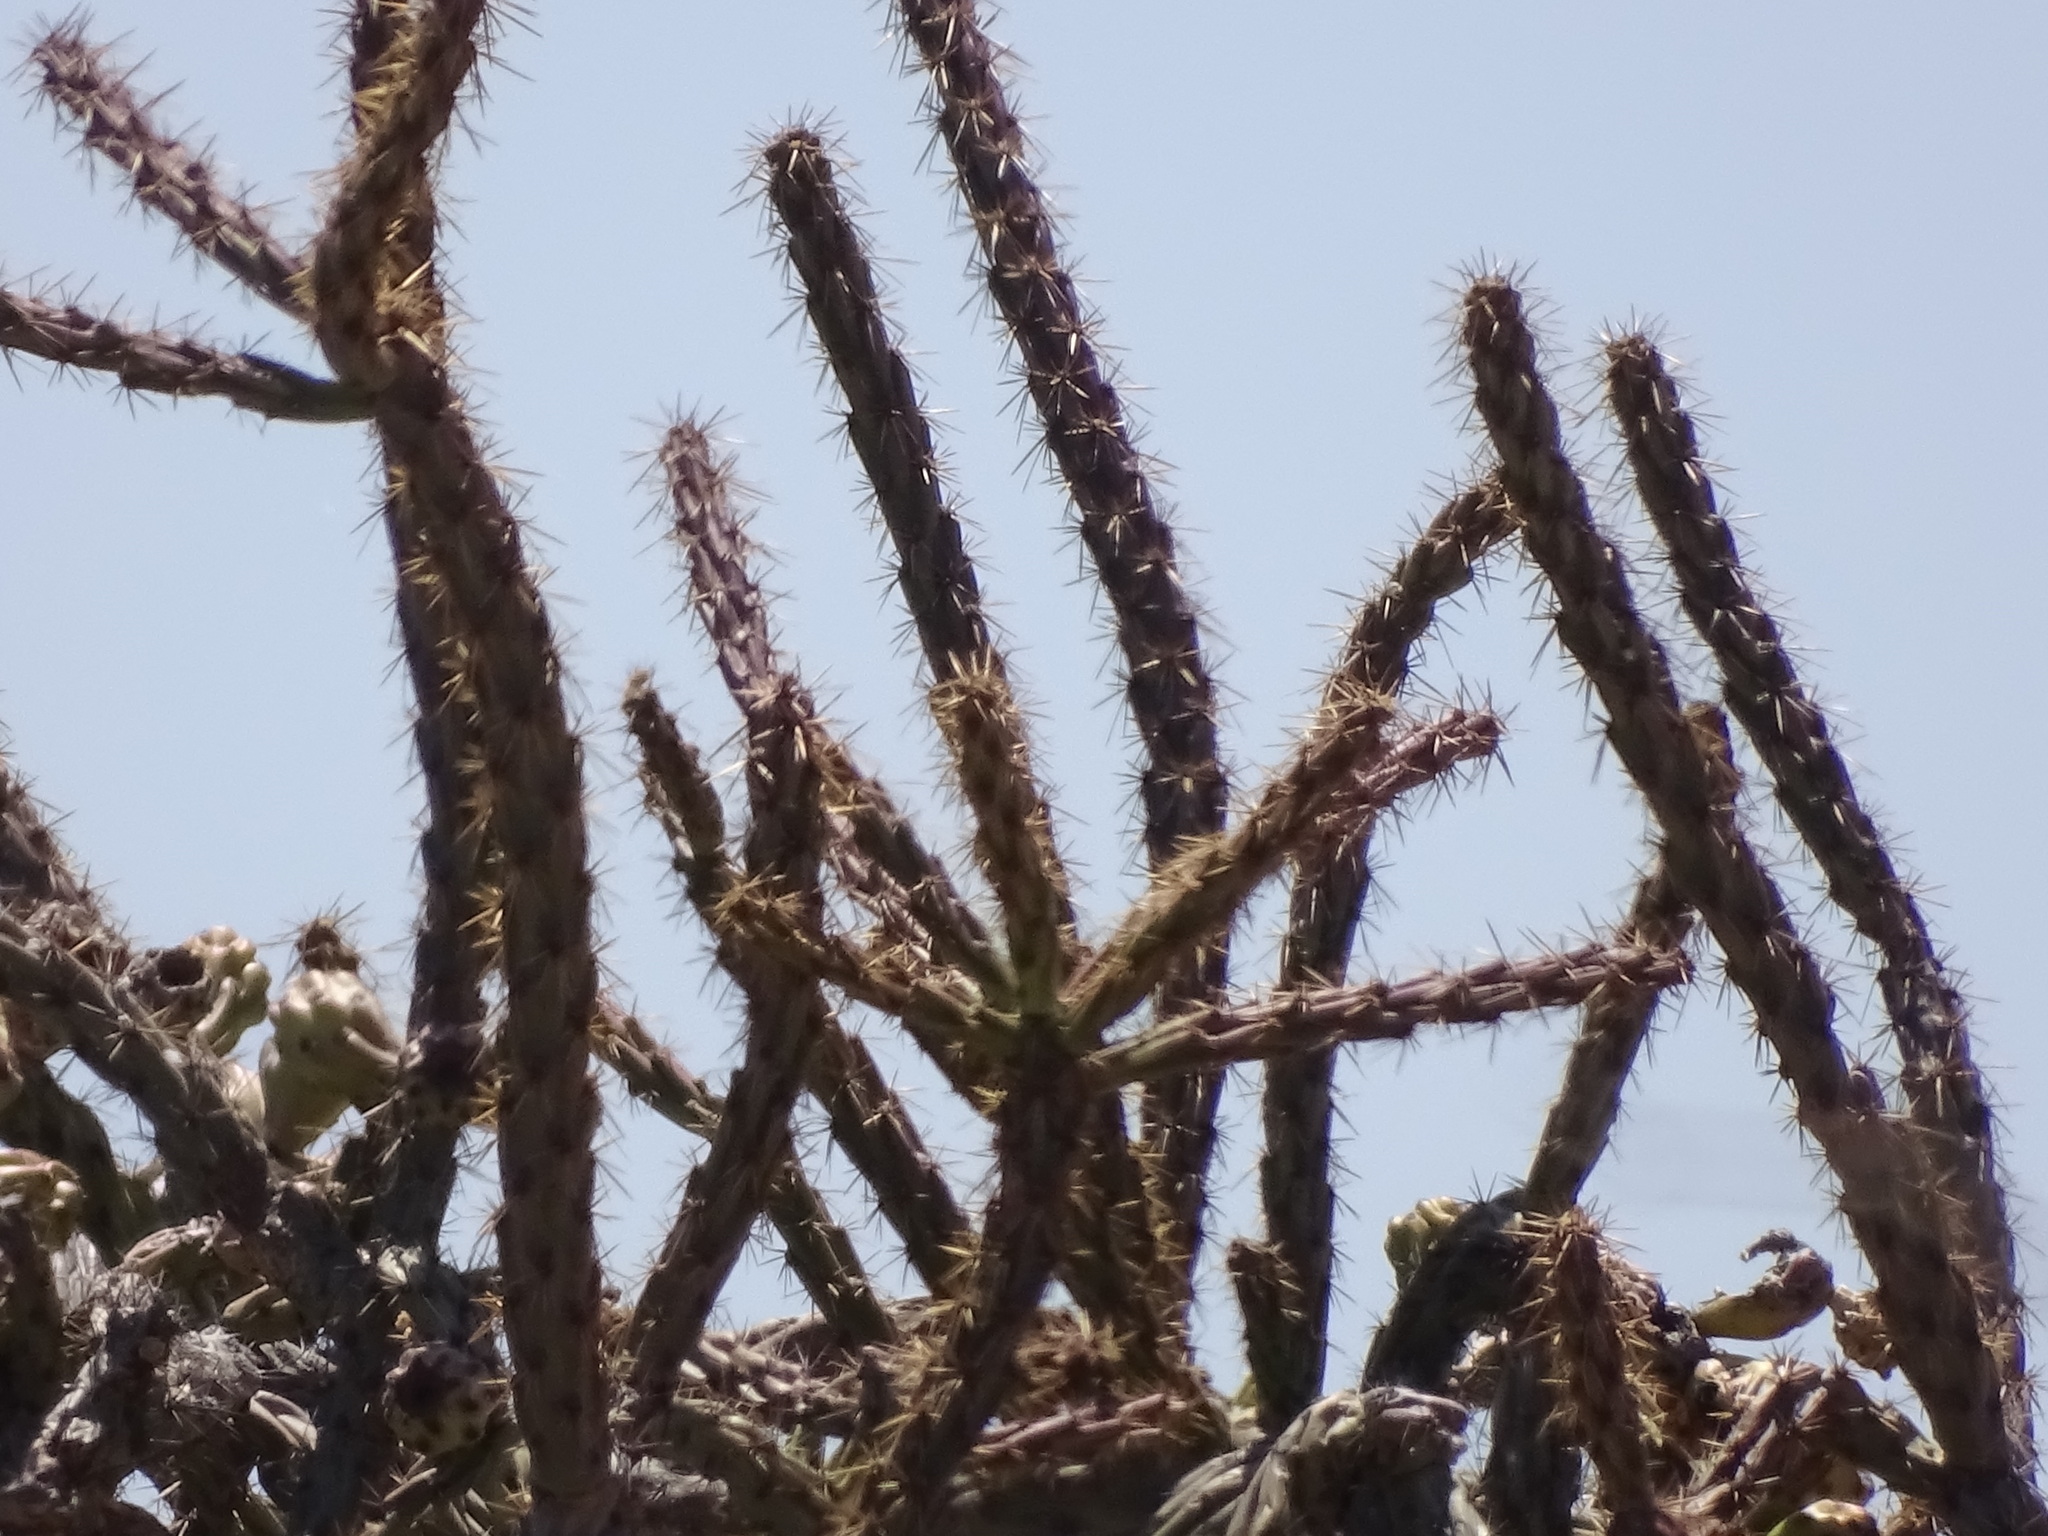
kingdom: Plantae
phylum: Tracheophyta
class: Magnoliopsida
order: Caryophyllales
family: Cactaceae
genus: Cylindropuntia
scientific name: Cylindropuntia thurberi
